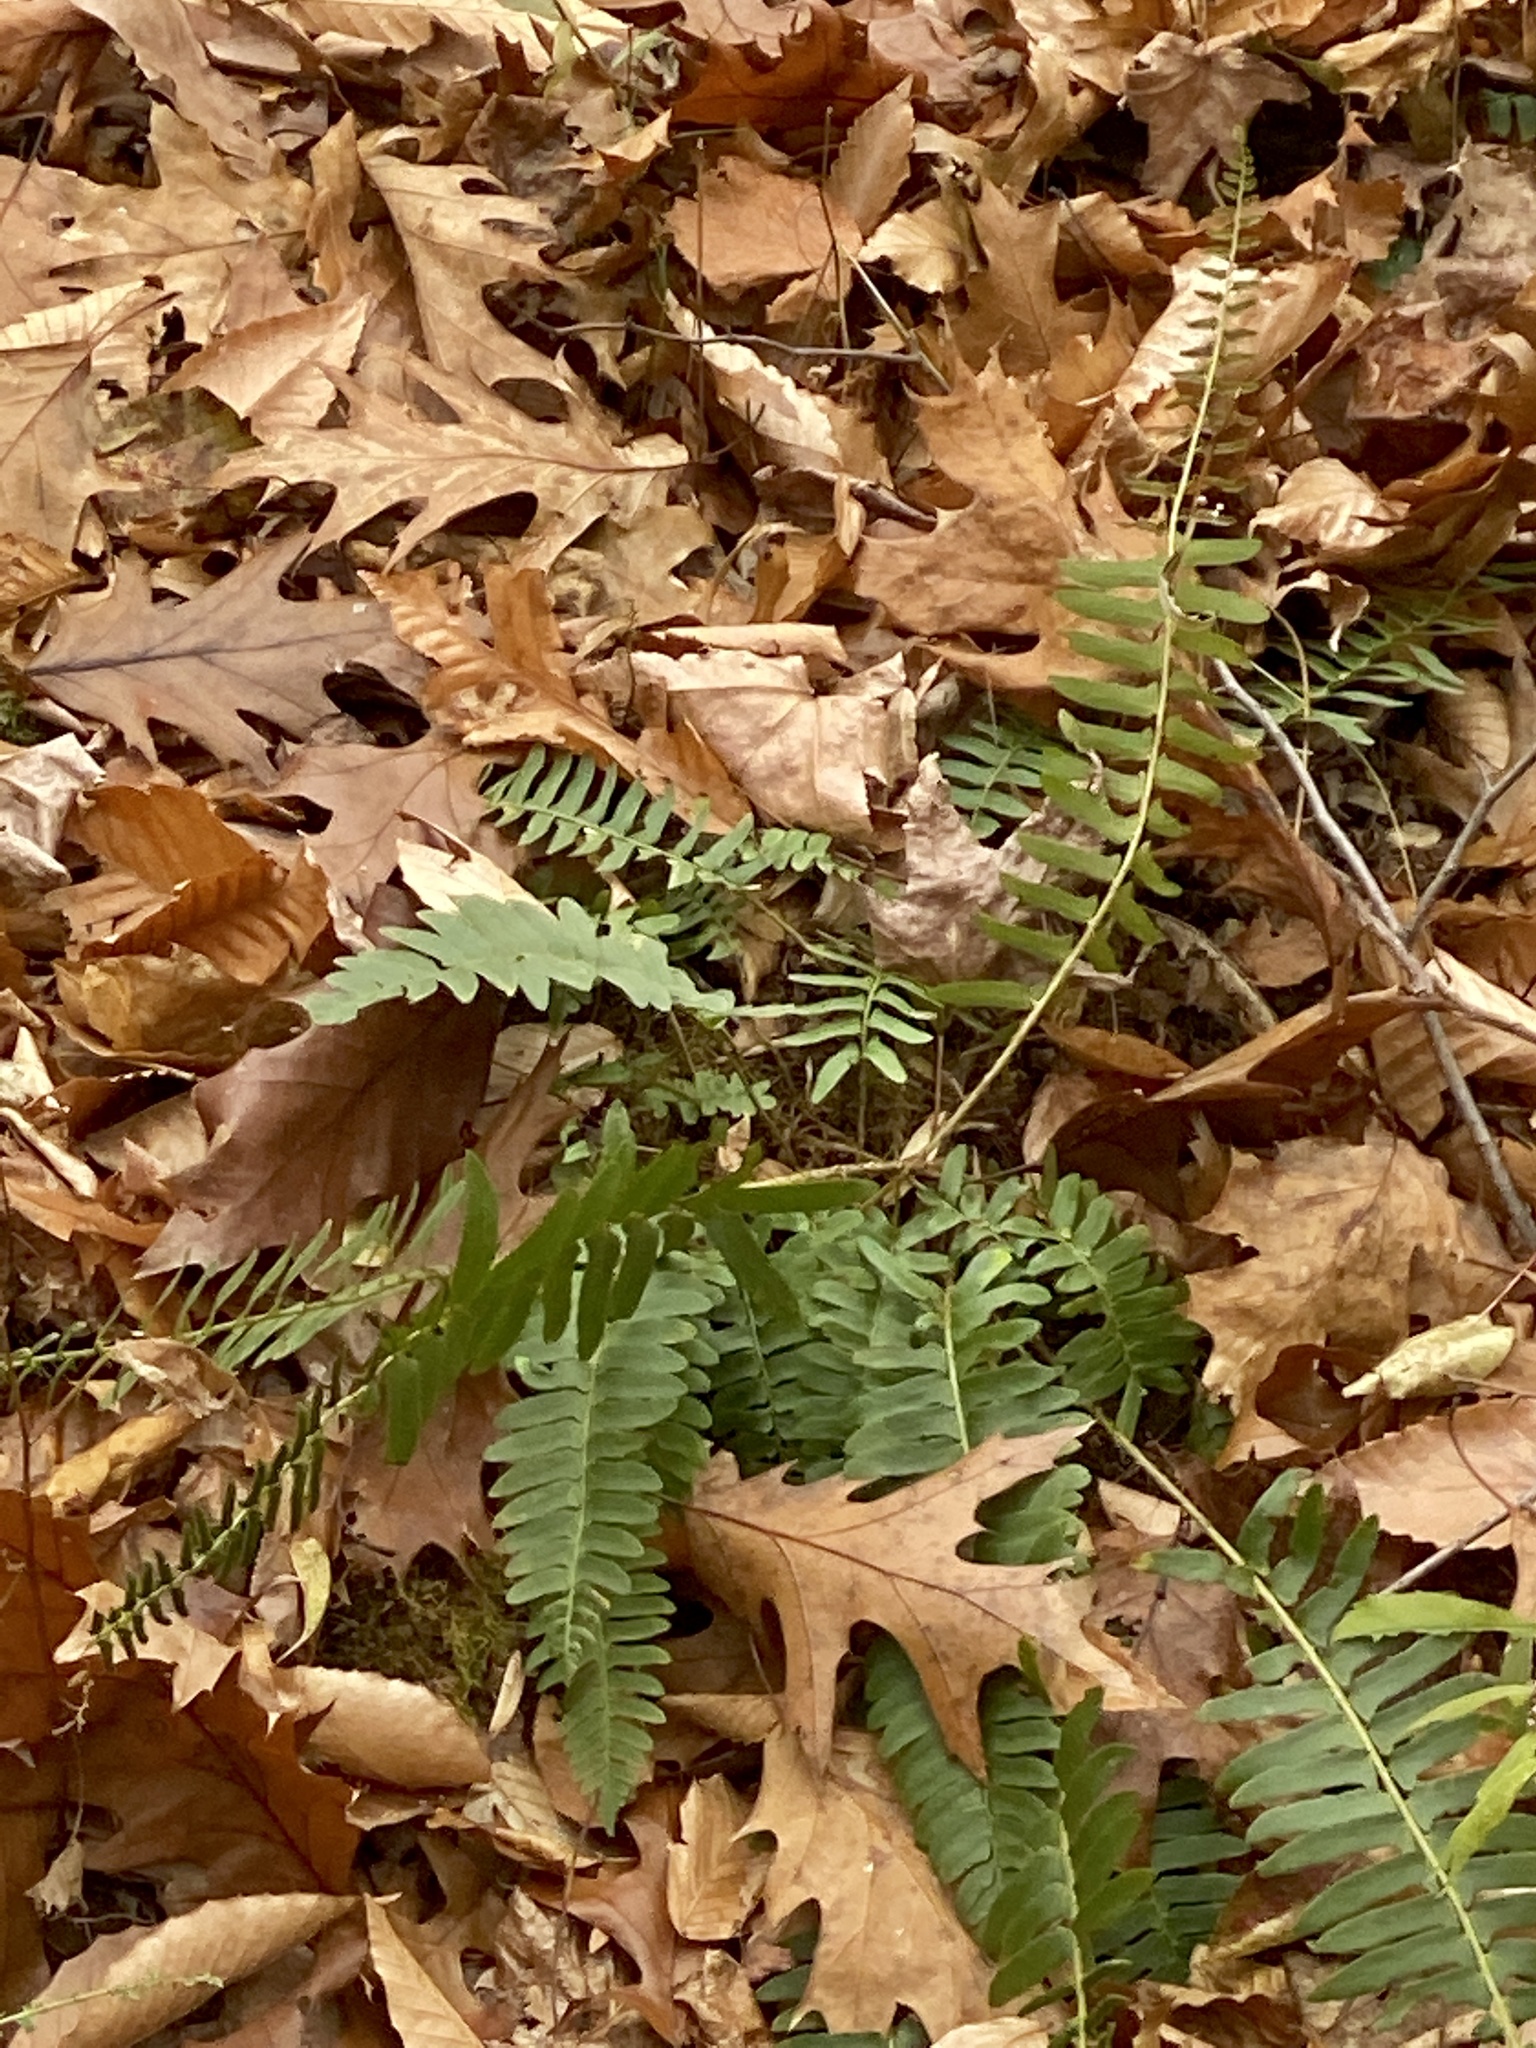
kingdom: Plantae
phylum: Tracheophyta
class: Polypodiopsida
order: Polypodiales
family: Dryopteridaceae
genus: Polystichum
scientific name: Polystichum acrostichoides
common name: Christmas fern
